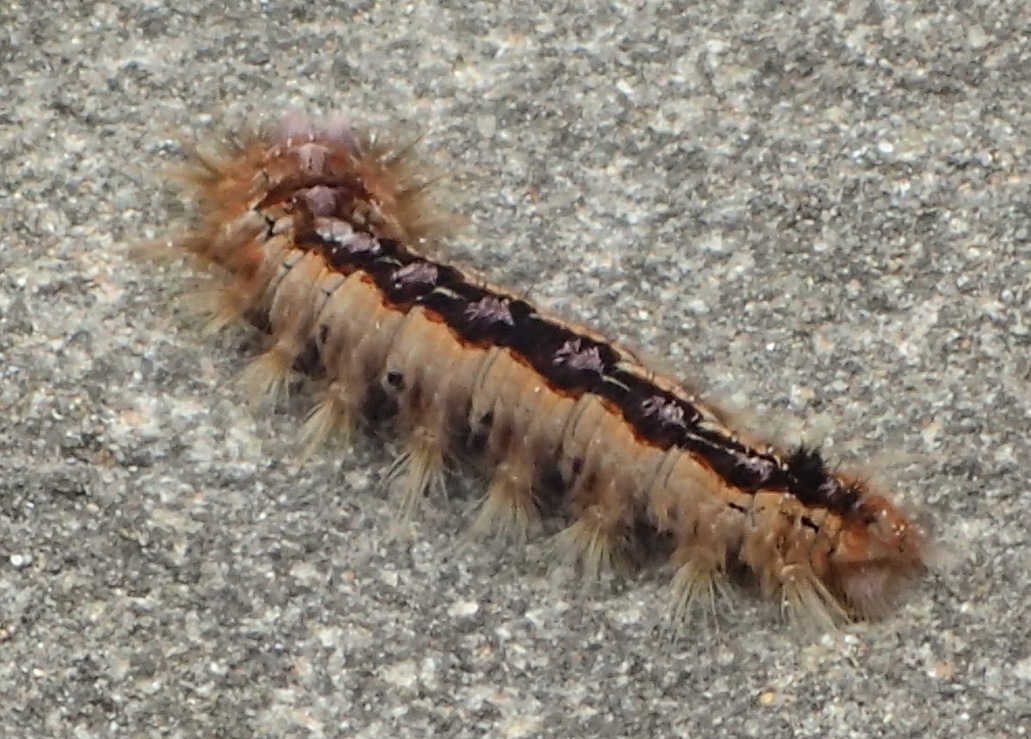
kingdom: Animalia
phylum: Arthropoda
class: Insecta
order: Lepidoptera
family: Lasiocampidae
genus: Eutricha
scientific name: Eutricha capensis
